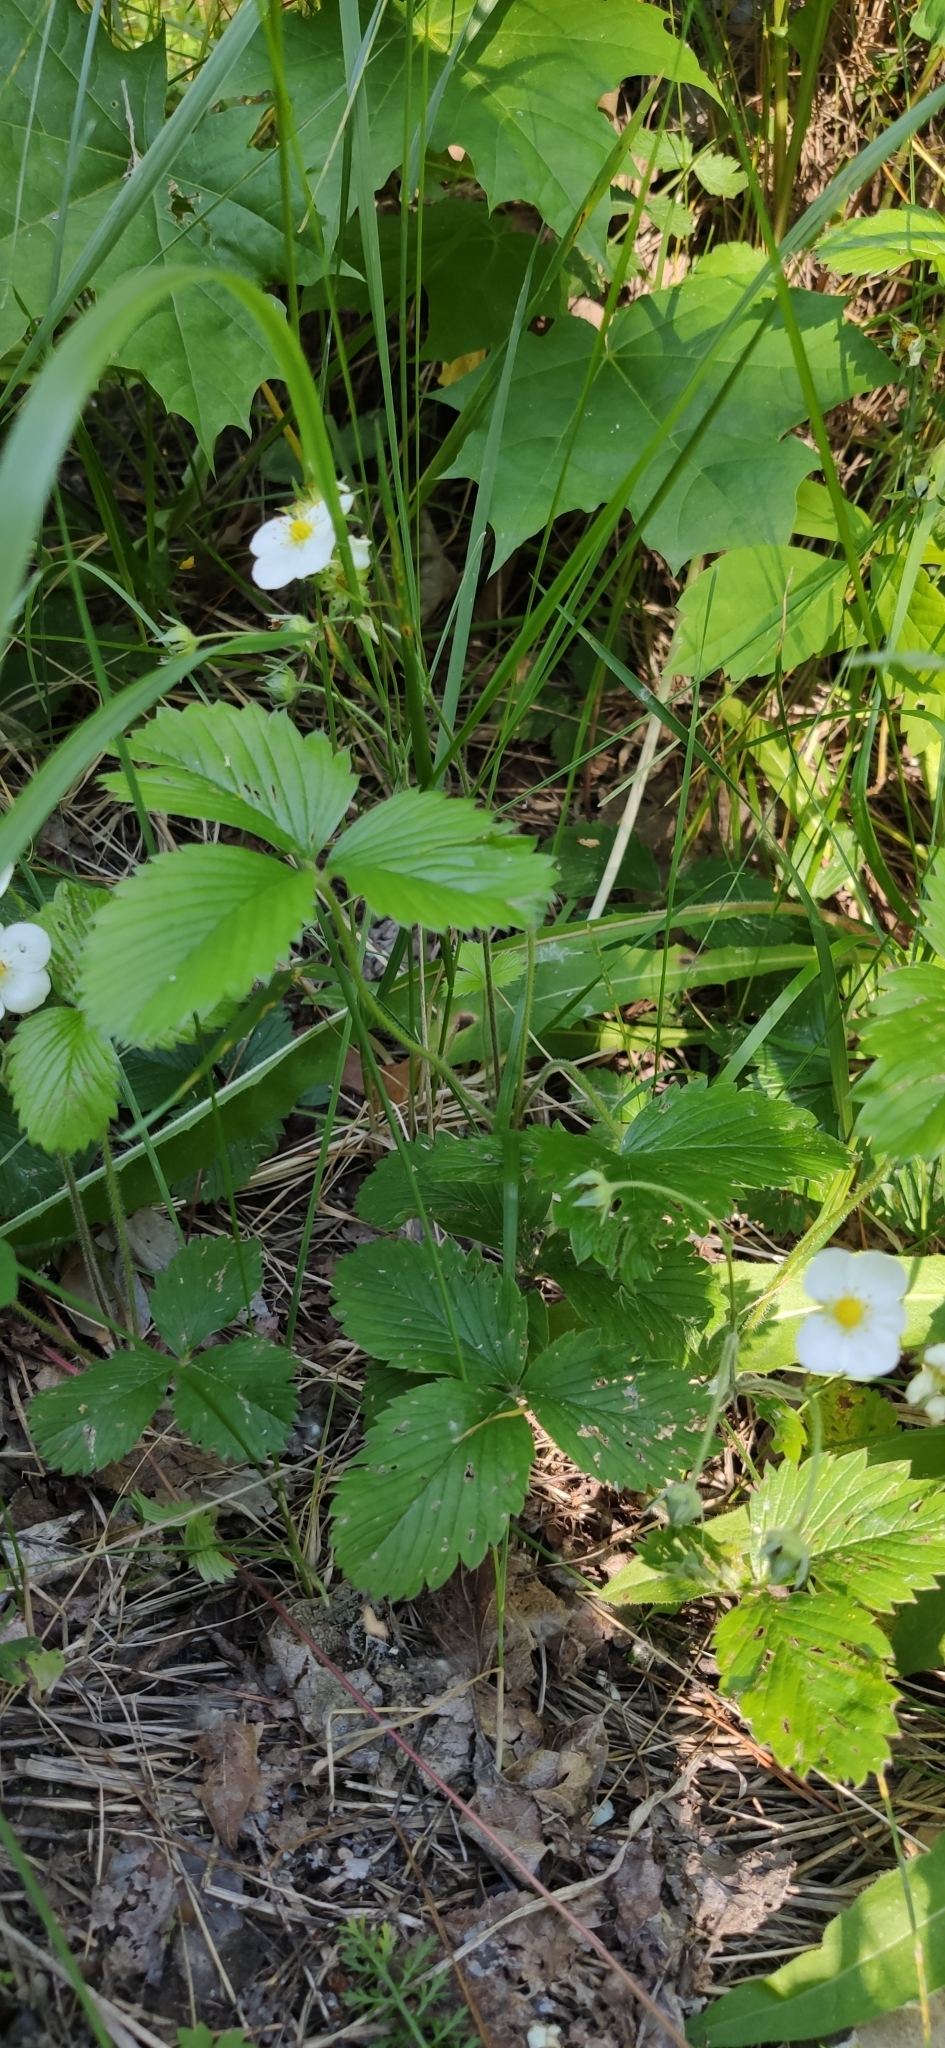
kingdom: Plantae
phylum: Tracheophyta
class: Magnoliopsida
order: Rosales
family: Rosaceae
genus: Fragaria
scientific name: Fragaria viridis
